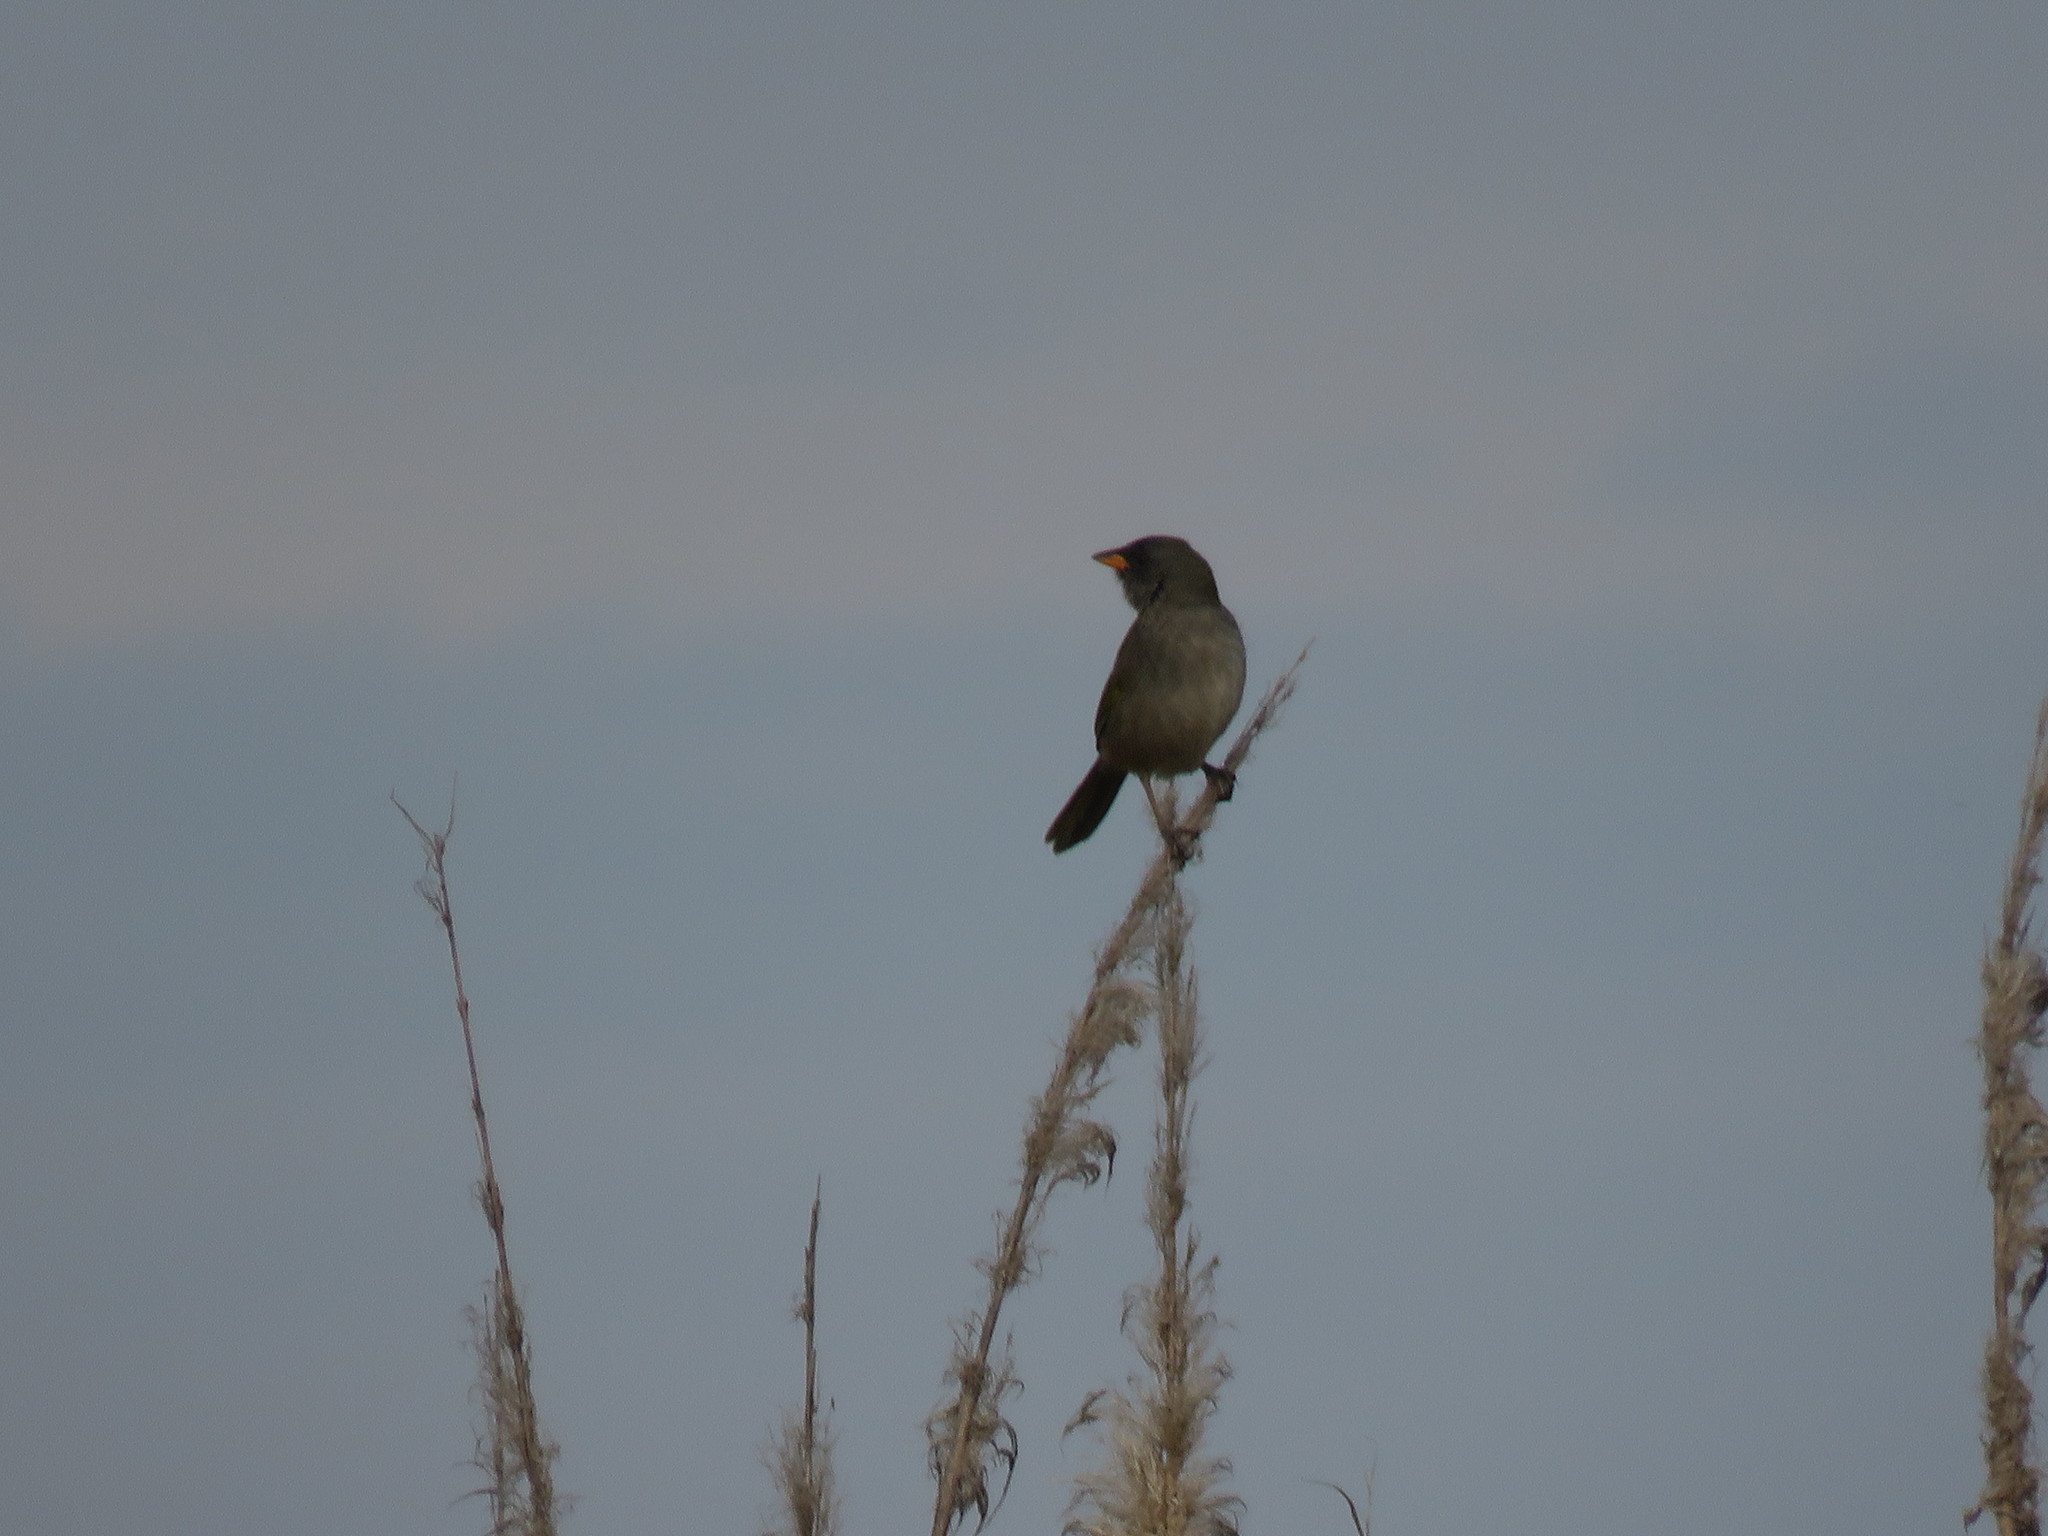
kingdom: Animalia
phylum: Chordata
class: Aves
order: Passeriformes
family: Thraupidae
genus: Embernagra
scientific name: Embernagra platensis
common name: Pampa finch
